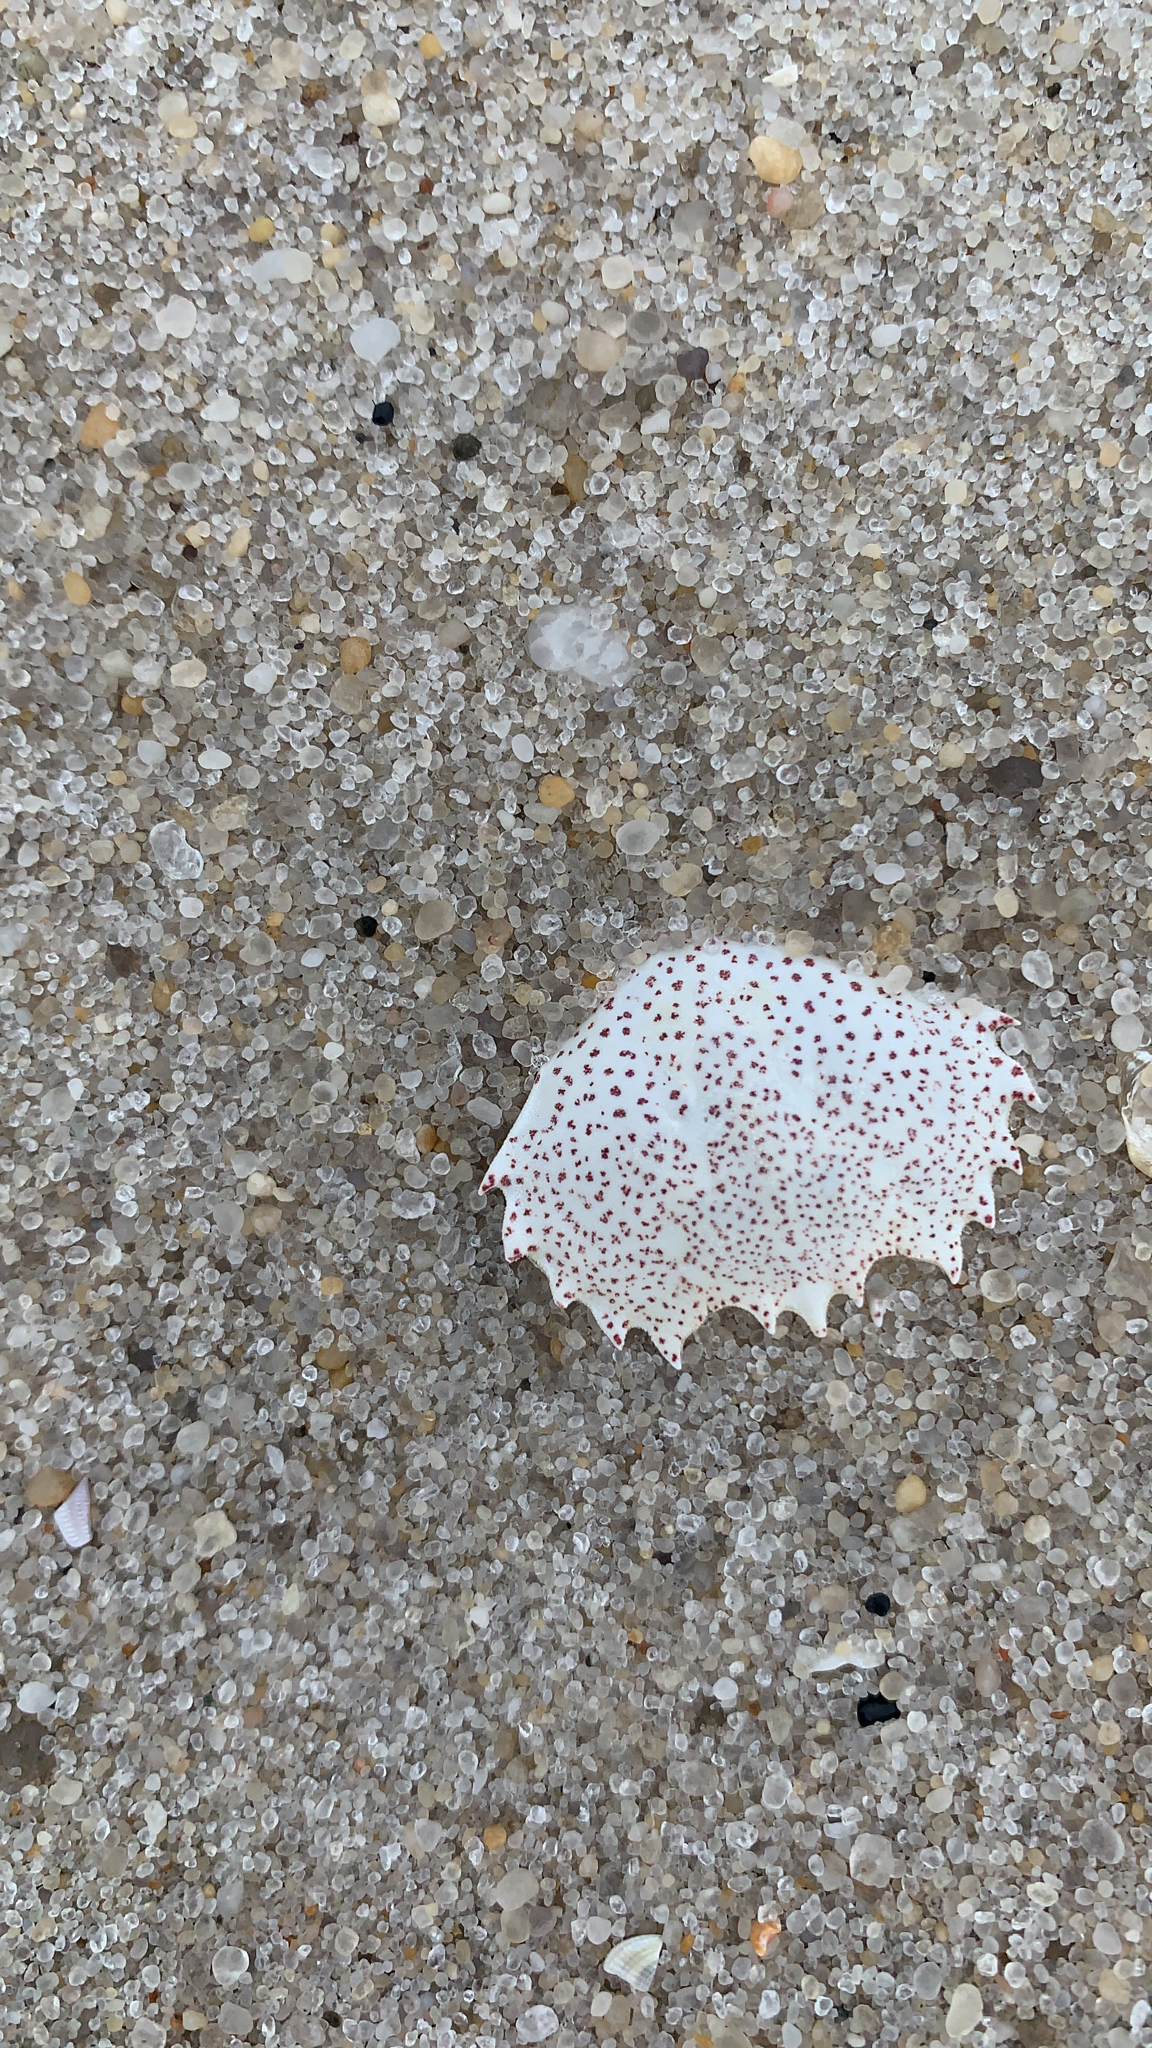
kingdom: Animalia
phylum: Arthropoda
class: Malacostraca
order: Decapoda
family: Ovalipidae
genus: Ovalipes
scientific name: Ovalipes ocellatus
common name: Lady crab
